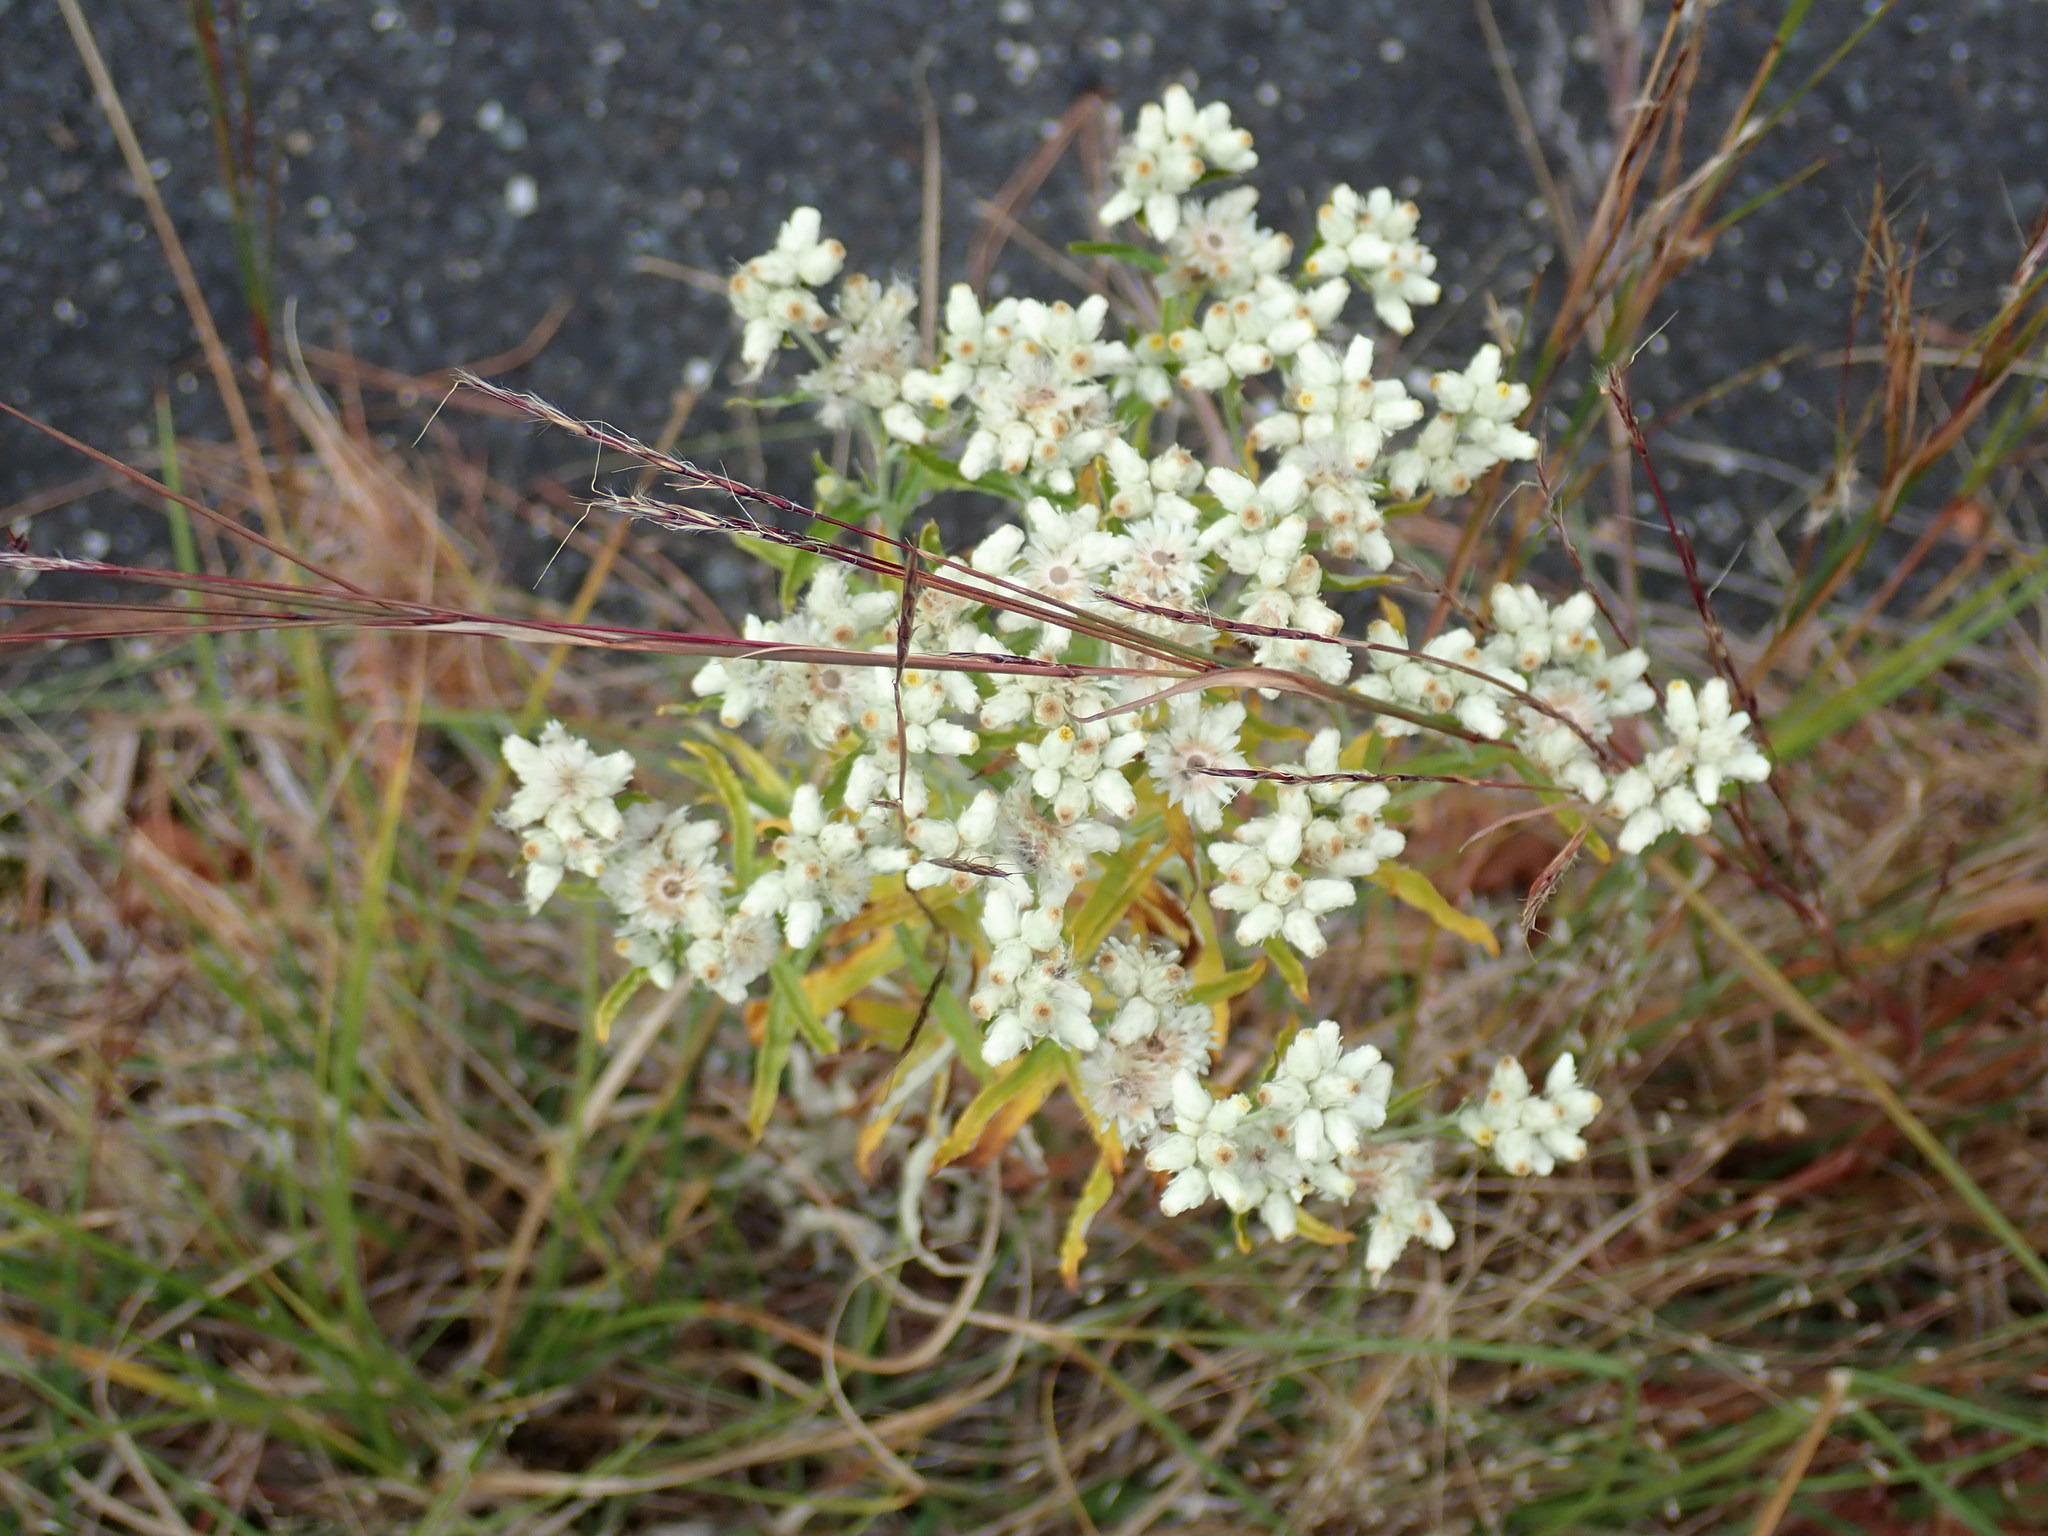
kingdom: Plantae
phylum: Tracheophyta
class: Magnoliopsida
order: Asterales
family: Asteraceae
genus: Pseudognaphalium
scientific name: Pseudognaphalium obtusifolium
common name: Eastern rabbit-tobacco
